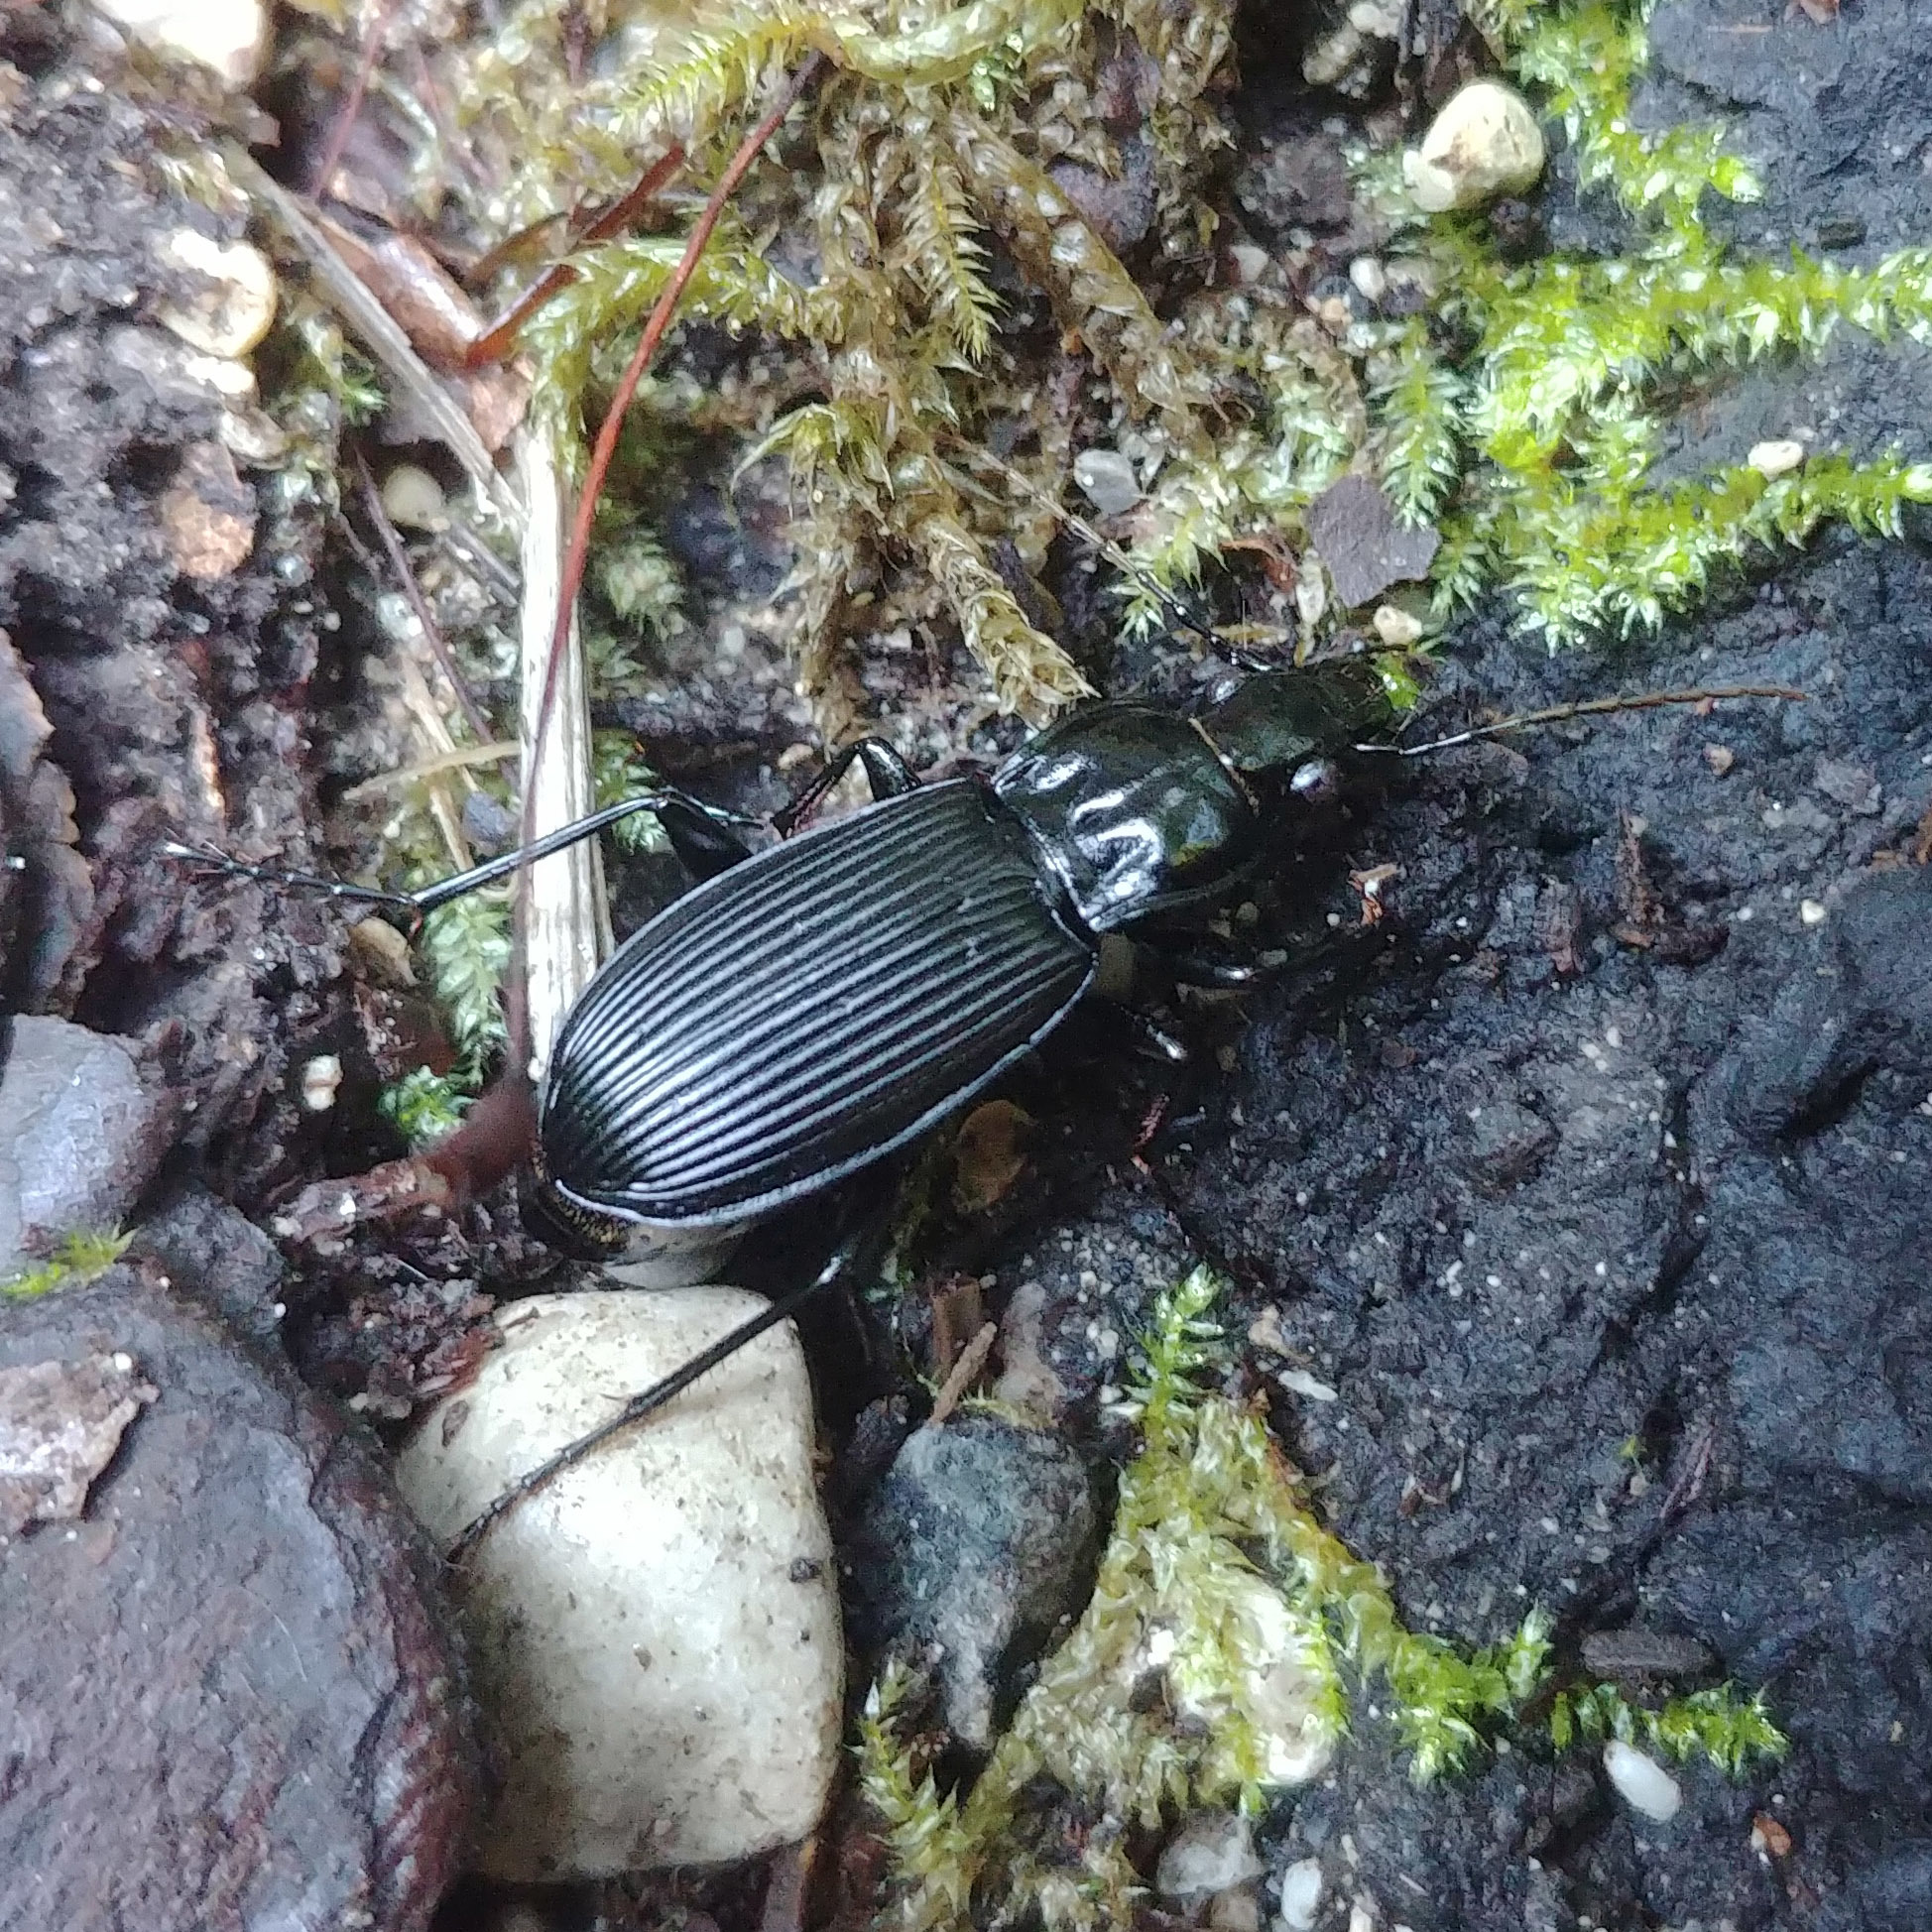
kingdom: Animalia
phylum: Arthropoda
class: Insecta
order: Coleoptera
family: Carabidae
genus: Pterostichus
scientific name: Pterostichus niger
